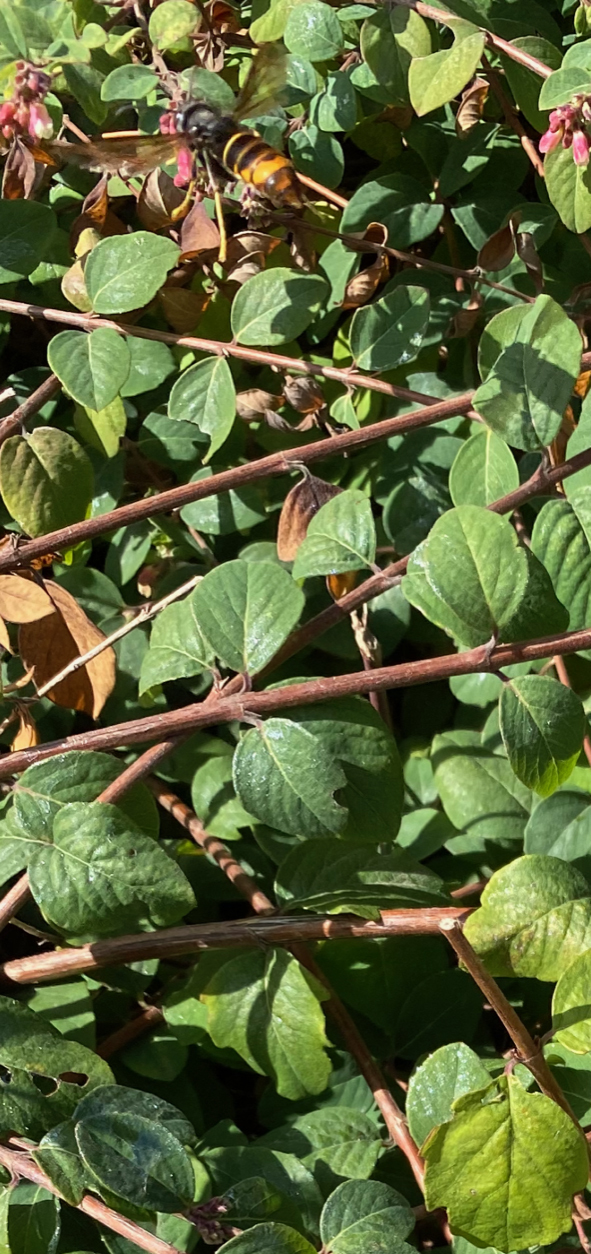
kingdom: Animalia
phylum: Arthropoda
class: Insecta
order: Hymenoptera
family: Vespidae
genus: Vespa
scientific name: Vespa velutina
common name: Asian hornet
